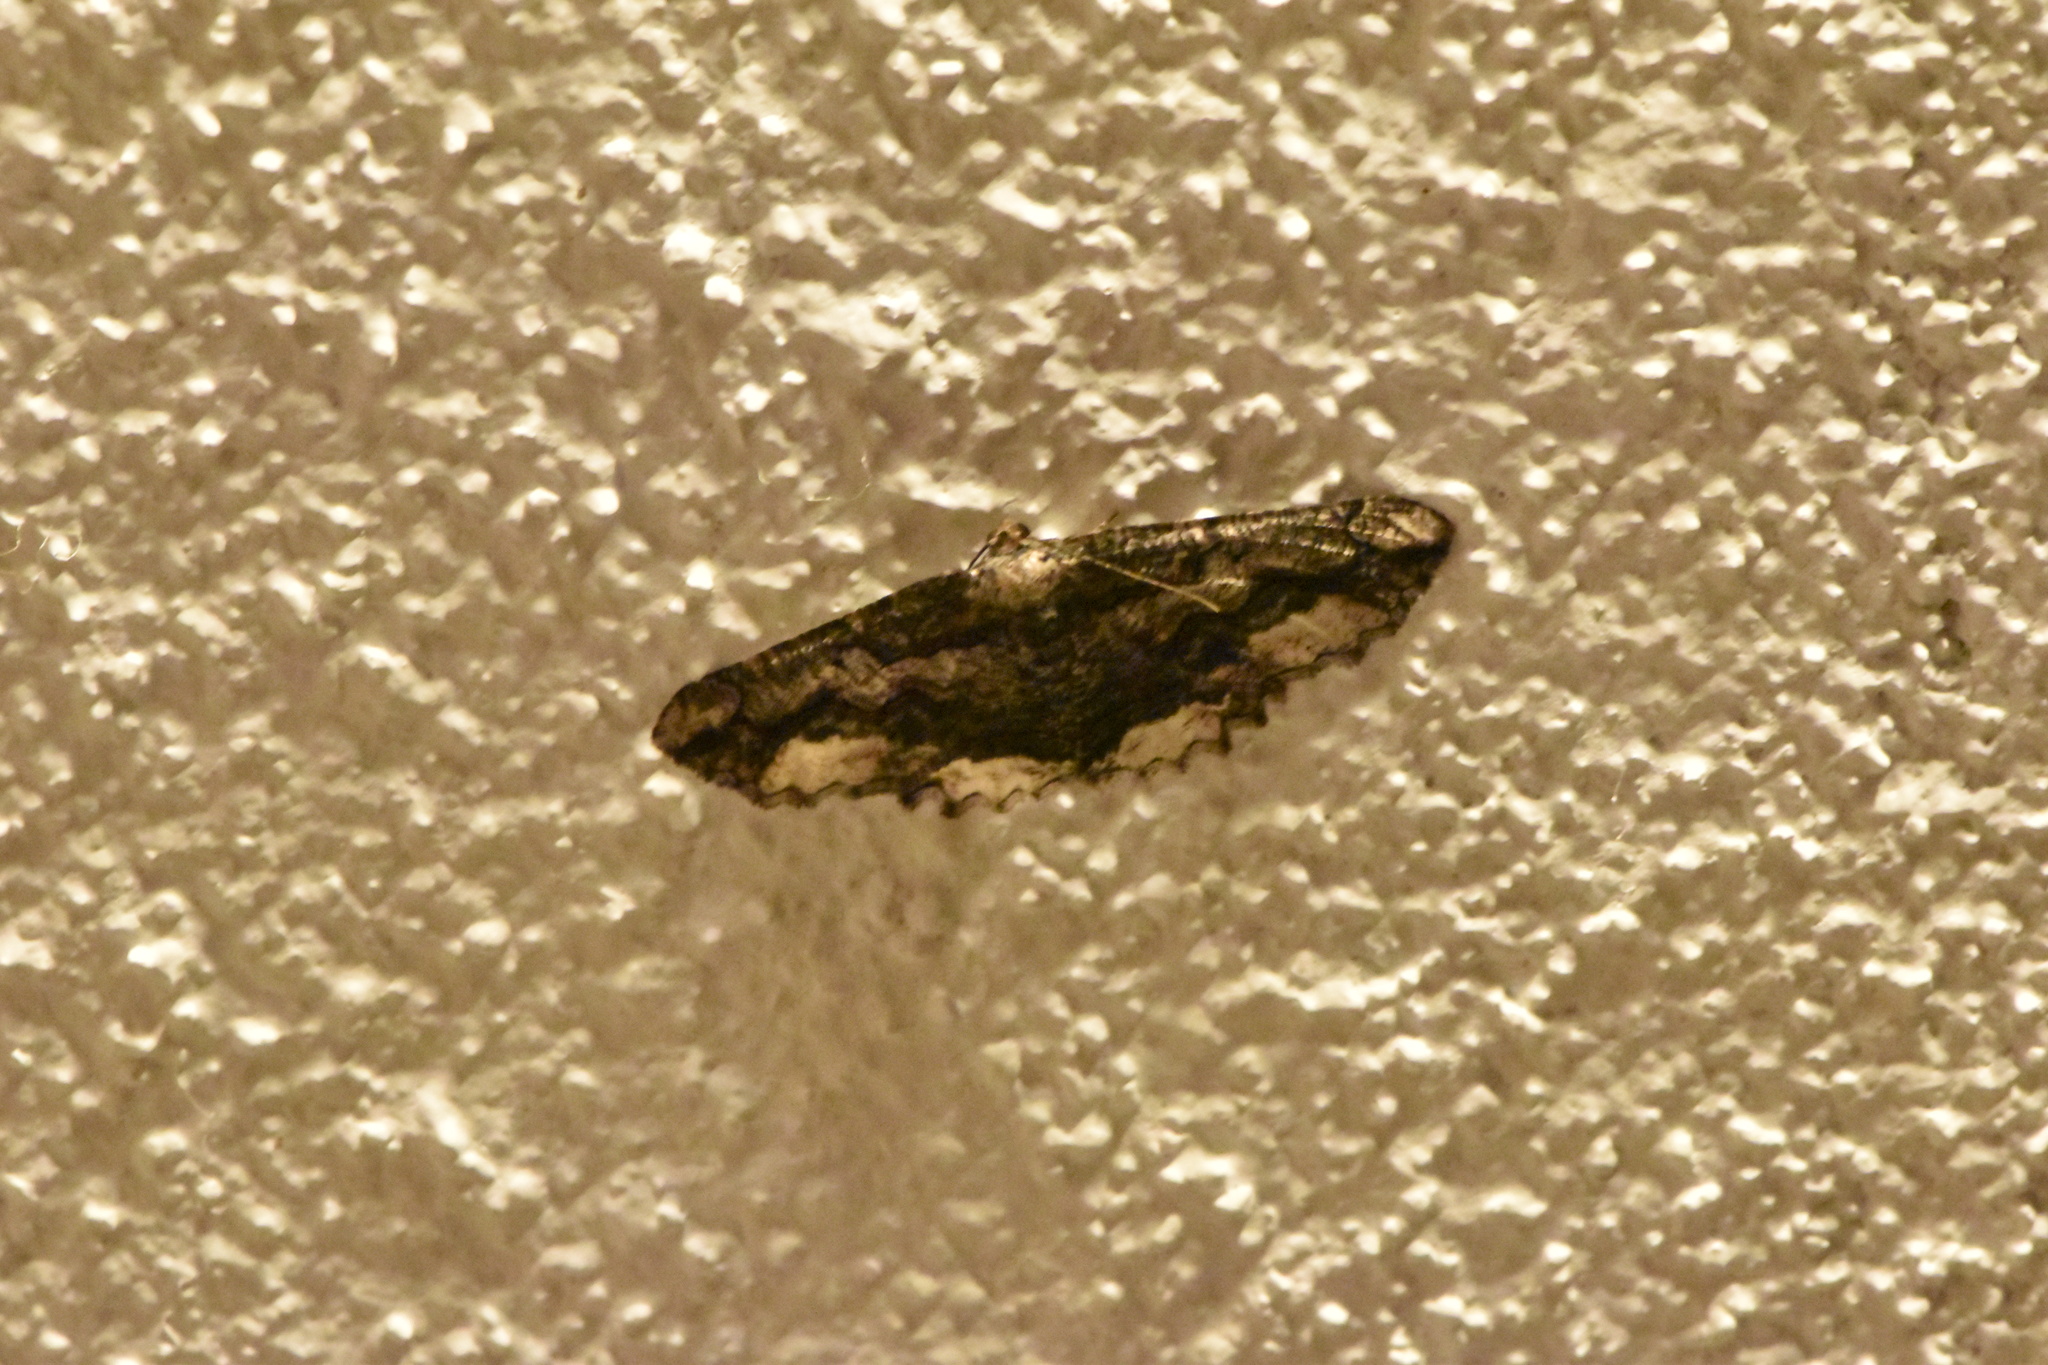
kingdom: Animalia
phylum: Arthropoda
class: Insecta
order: Lepidoptera
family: Geometridae
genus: Menophra
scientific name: Menophra japygiaria
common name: Brassy waved umber
